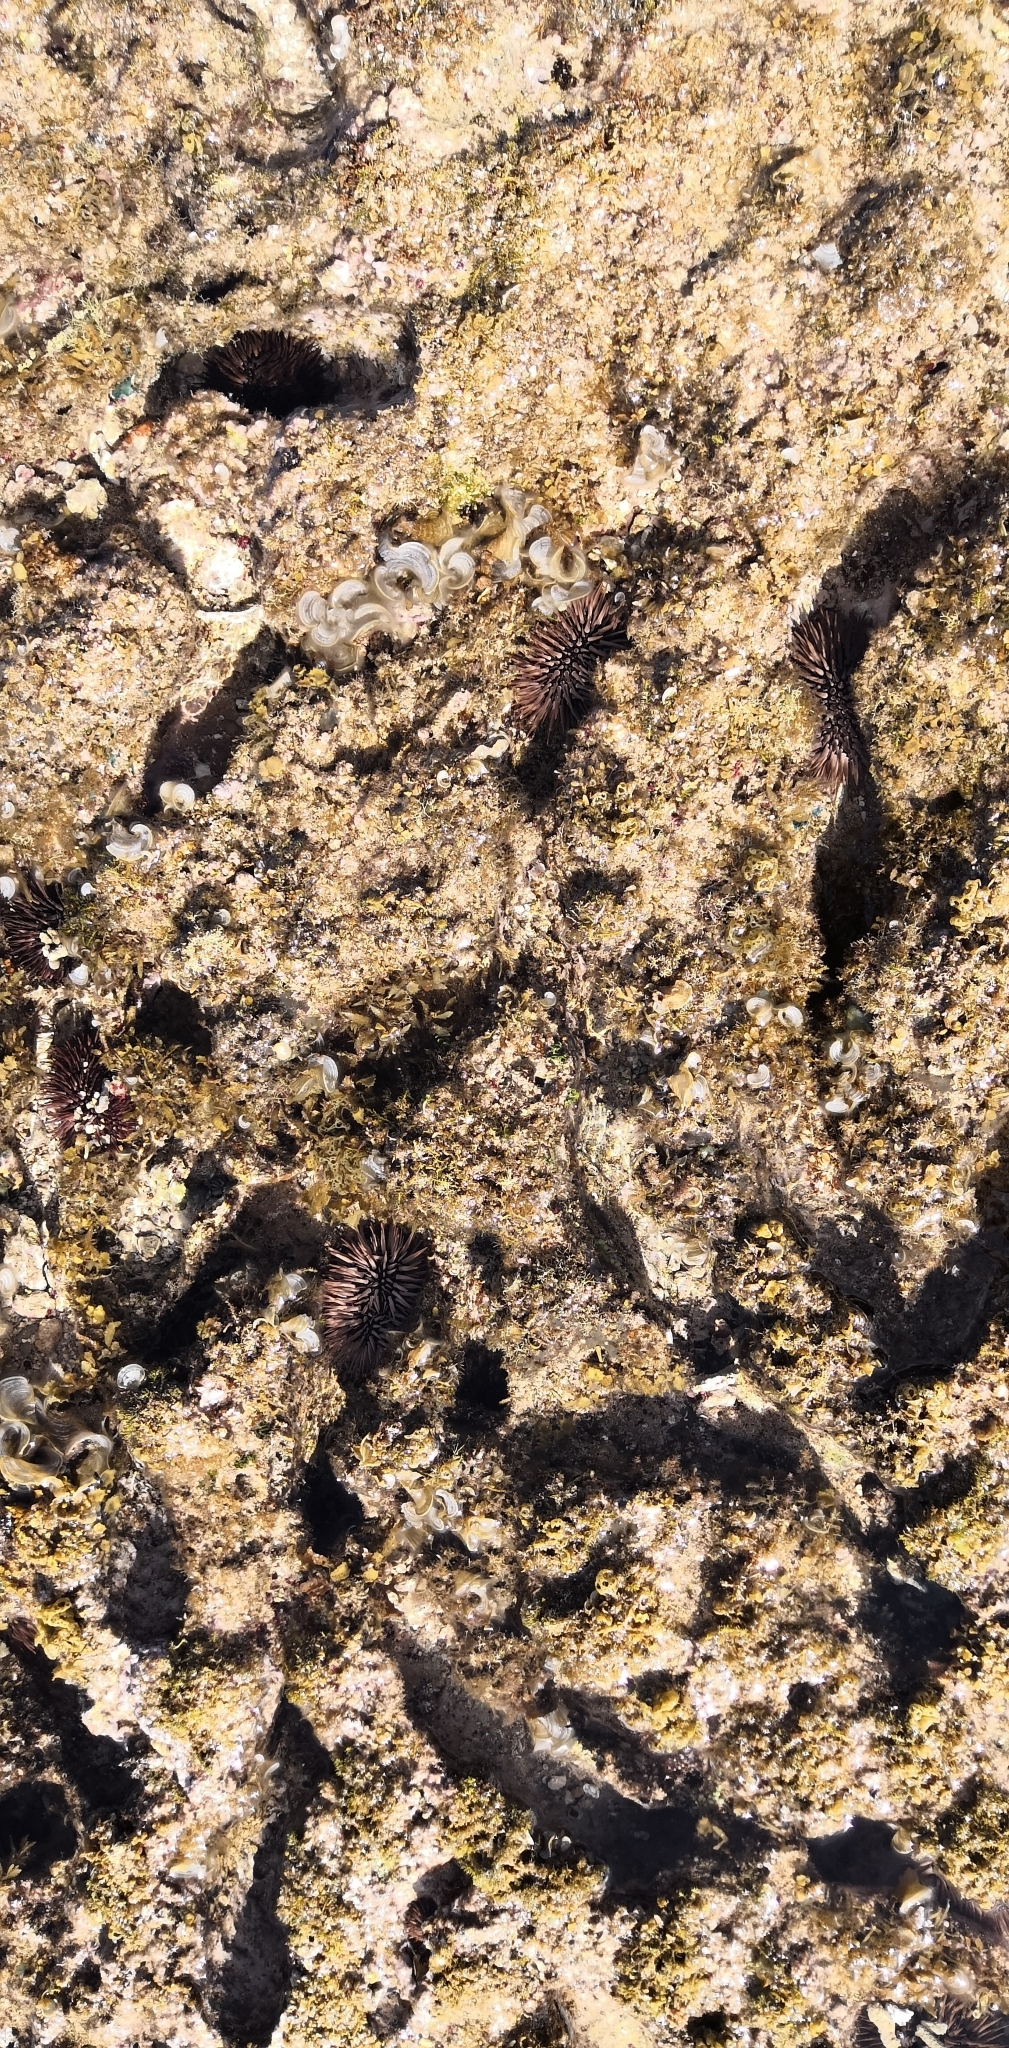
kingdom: Animalia
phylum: Echinodermata
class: Echinoidea
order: Camarodonta
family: Echinometridae
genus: Echinometra
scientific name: Echinometra mathaei
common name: Rock-boring urchin
